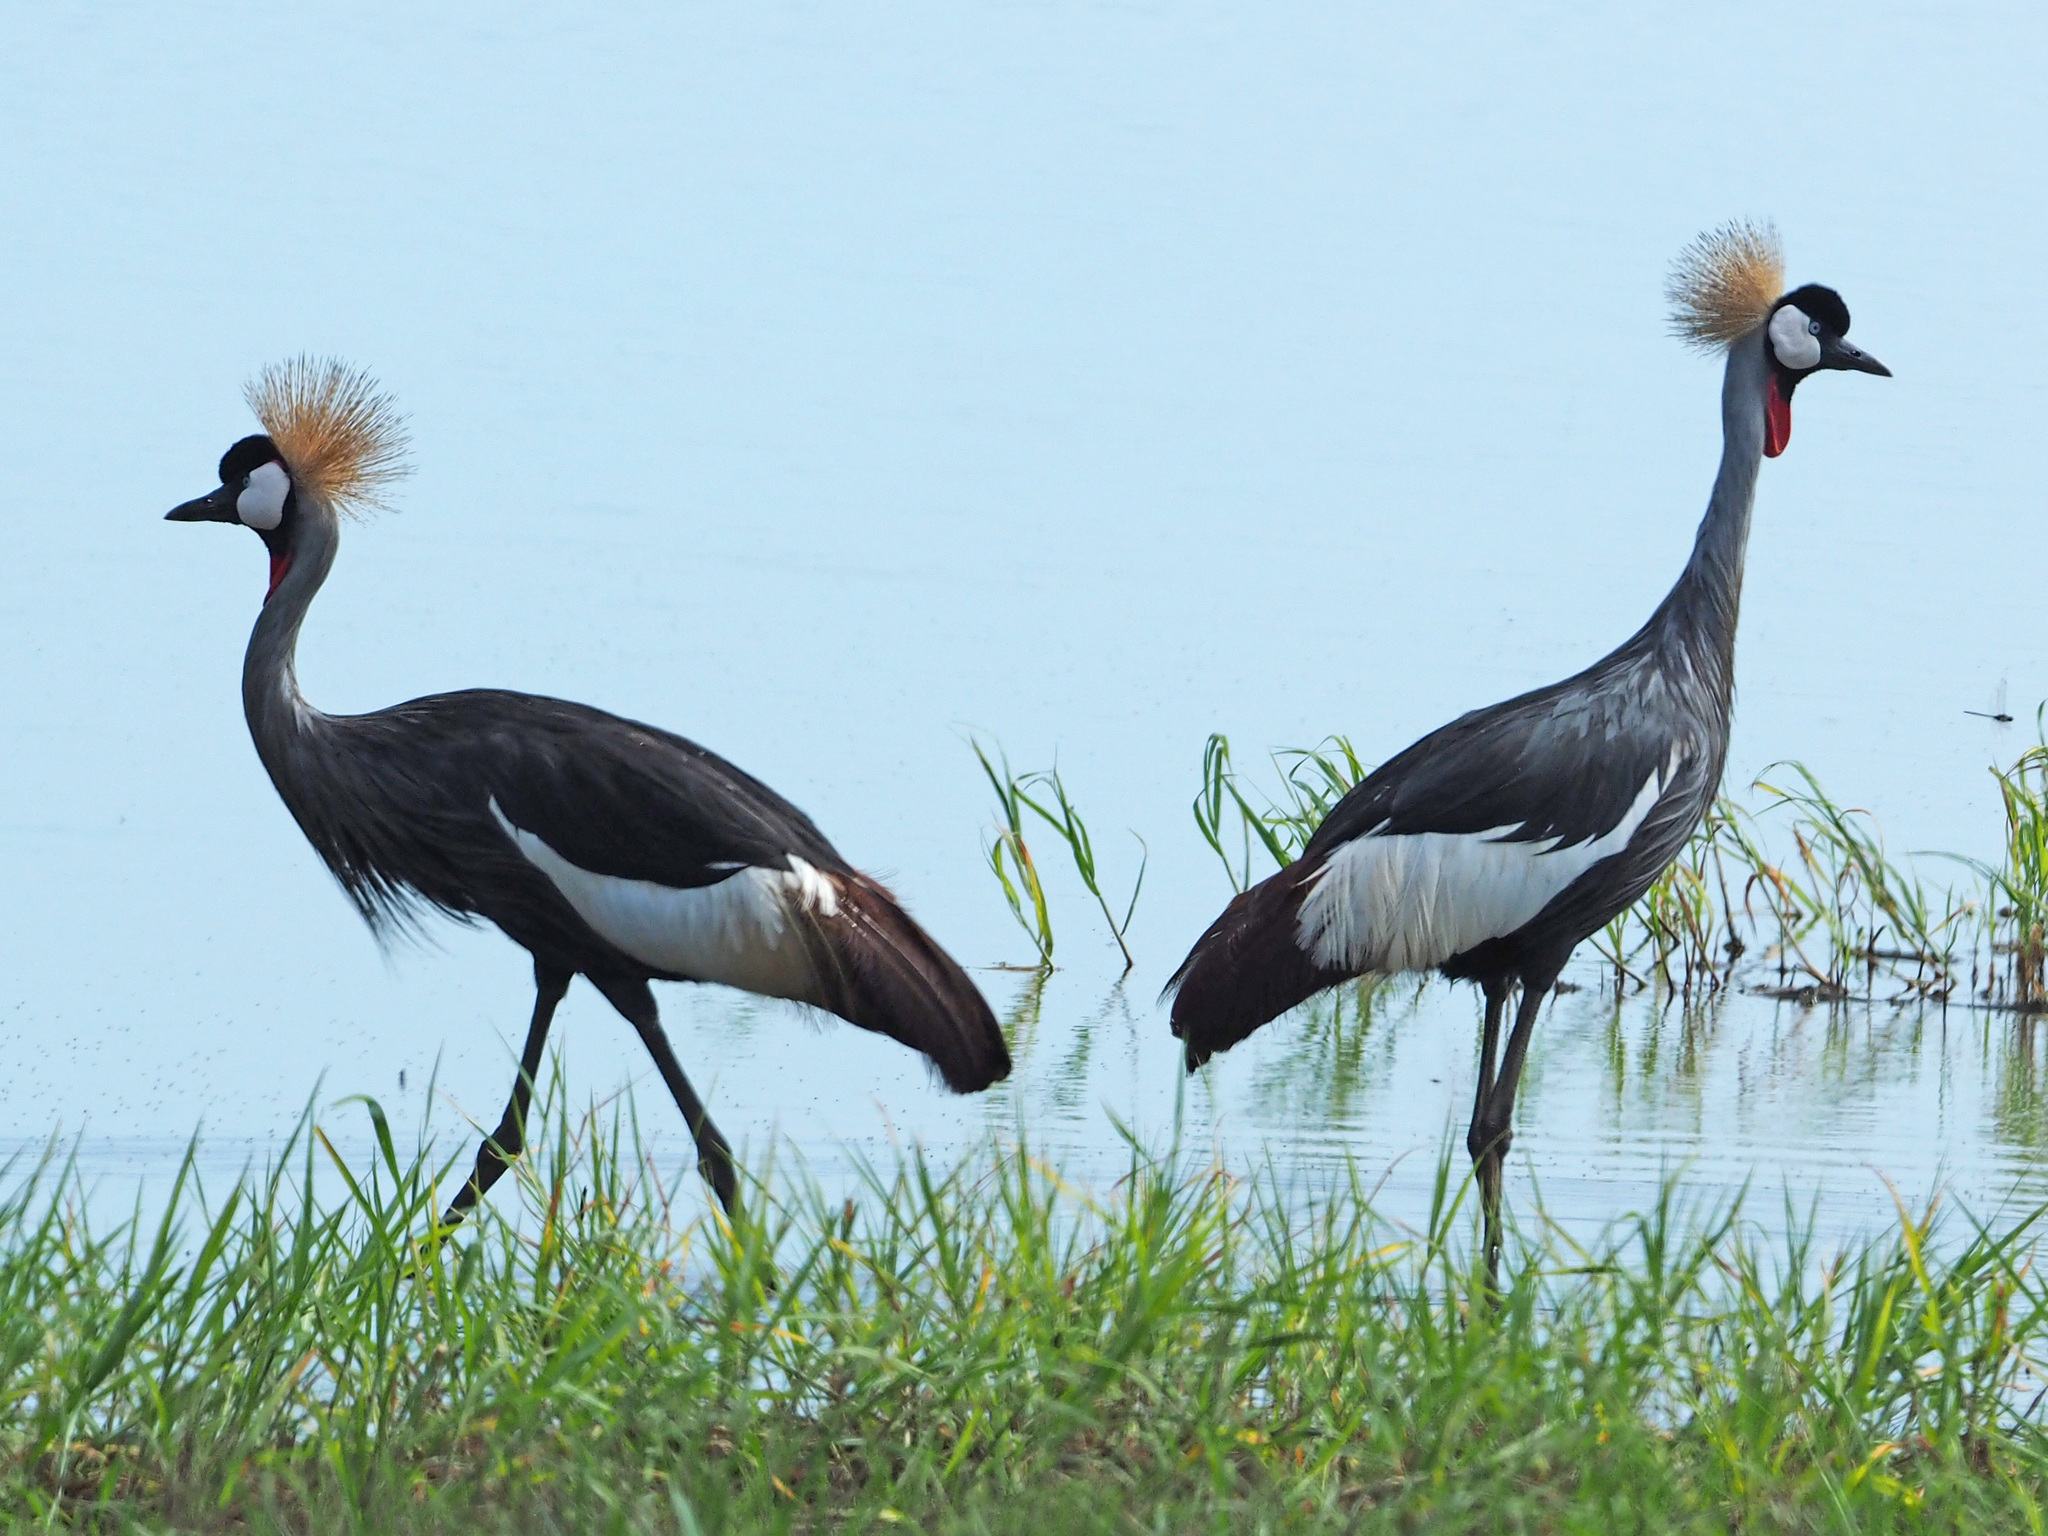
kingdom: Animalia
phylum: Chordata
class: Aves
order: Gruiformes
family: Gruidae
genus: Balearica
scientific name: Balearica regulorum
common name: Grey crowned crane
